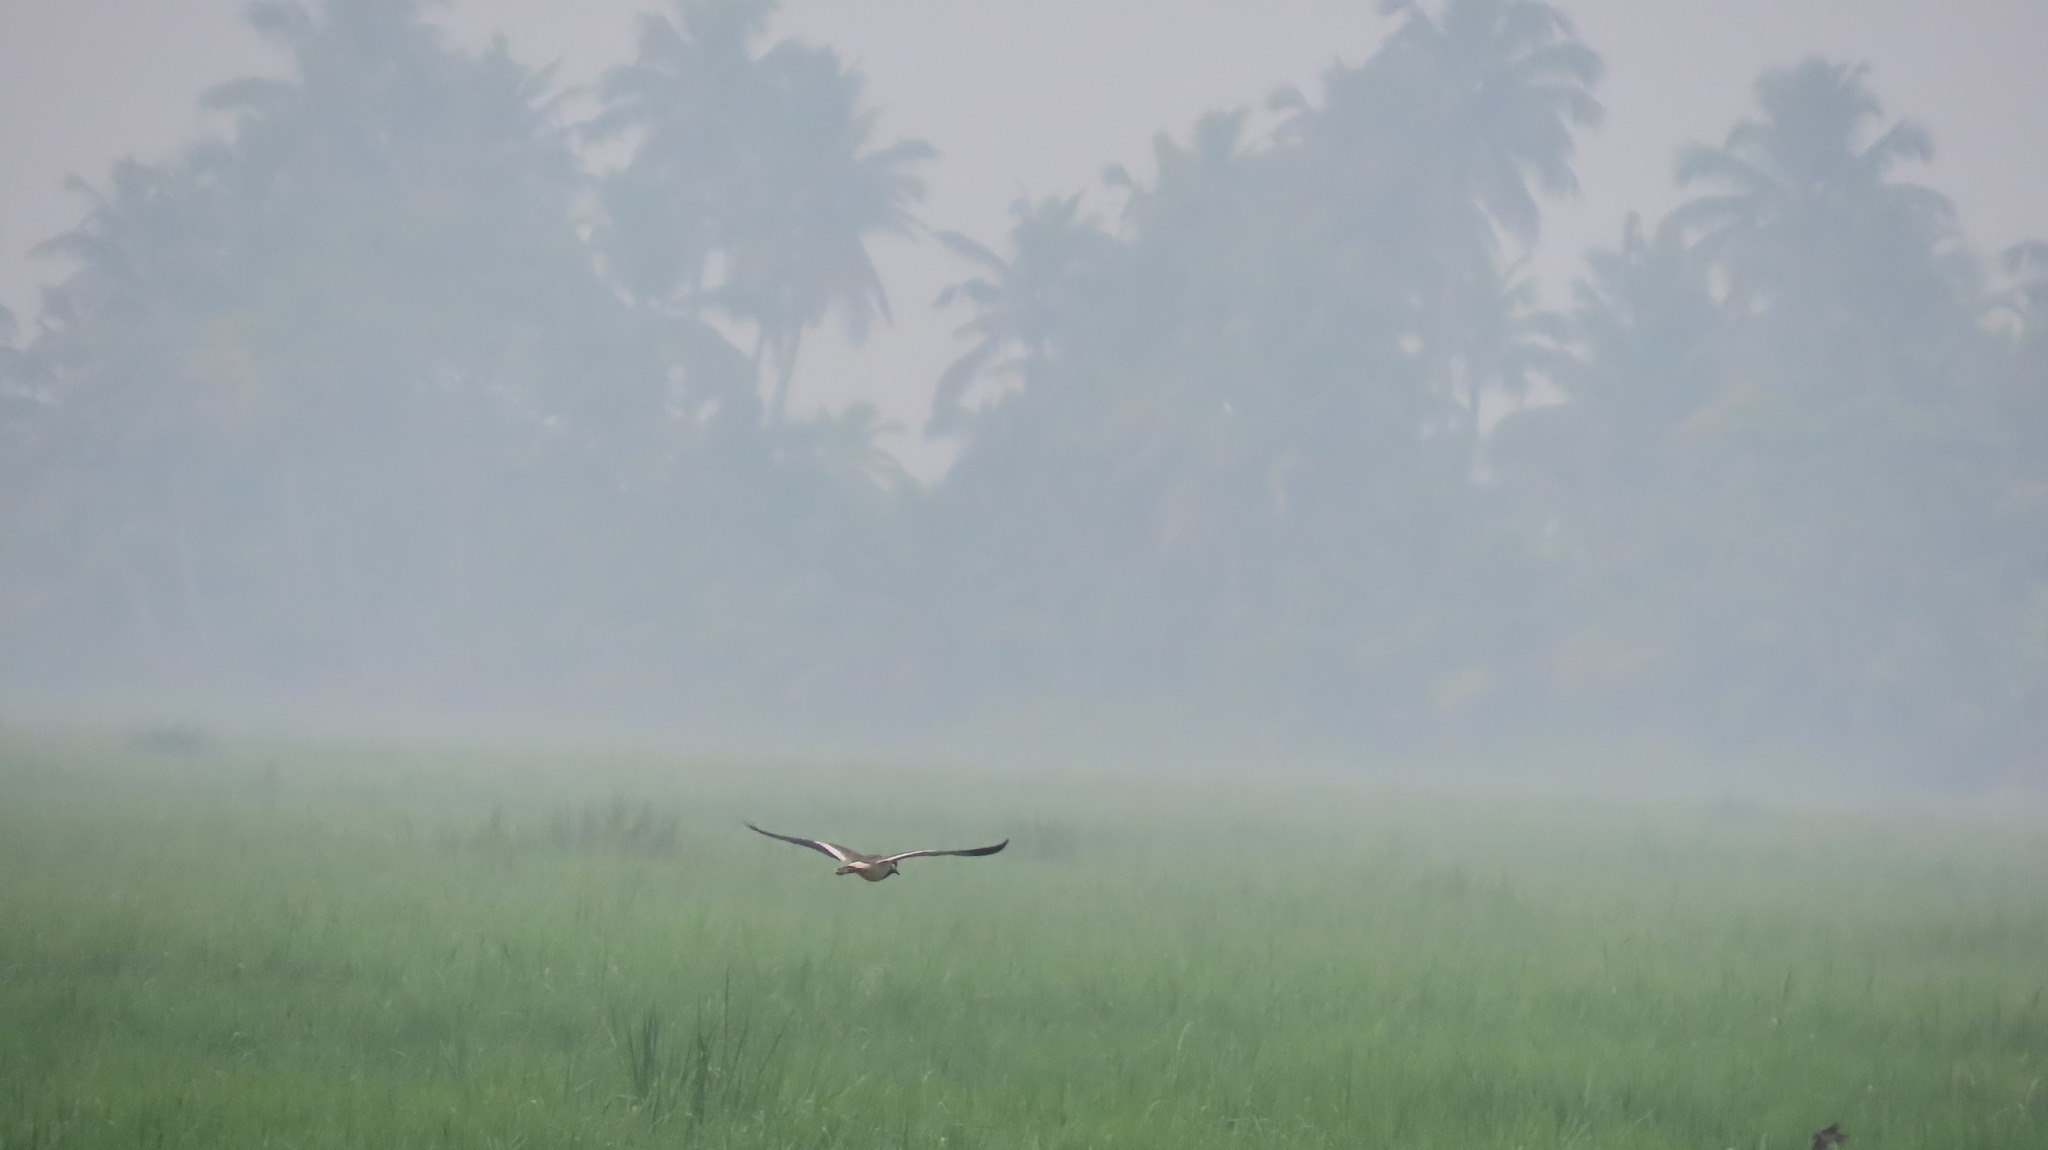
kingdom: Animalia
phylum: Chordata
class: Aves
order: Charadriiformes
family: Charadriidae
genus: Vanellus
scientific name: Vanellus indicus
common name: Red-wattled lapwing
